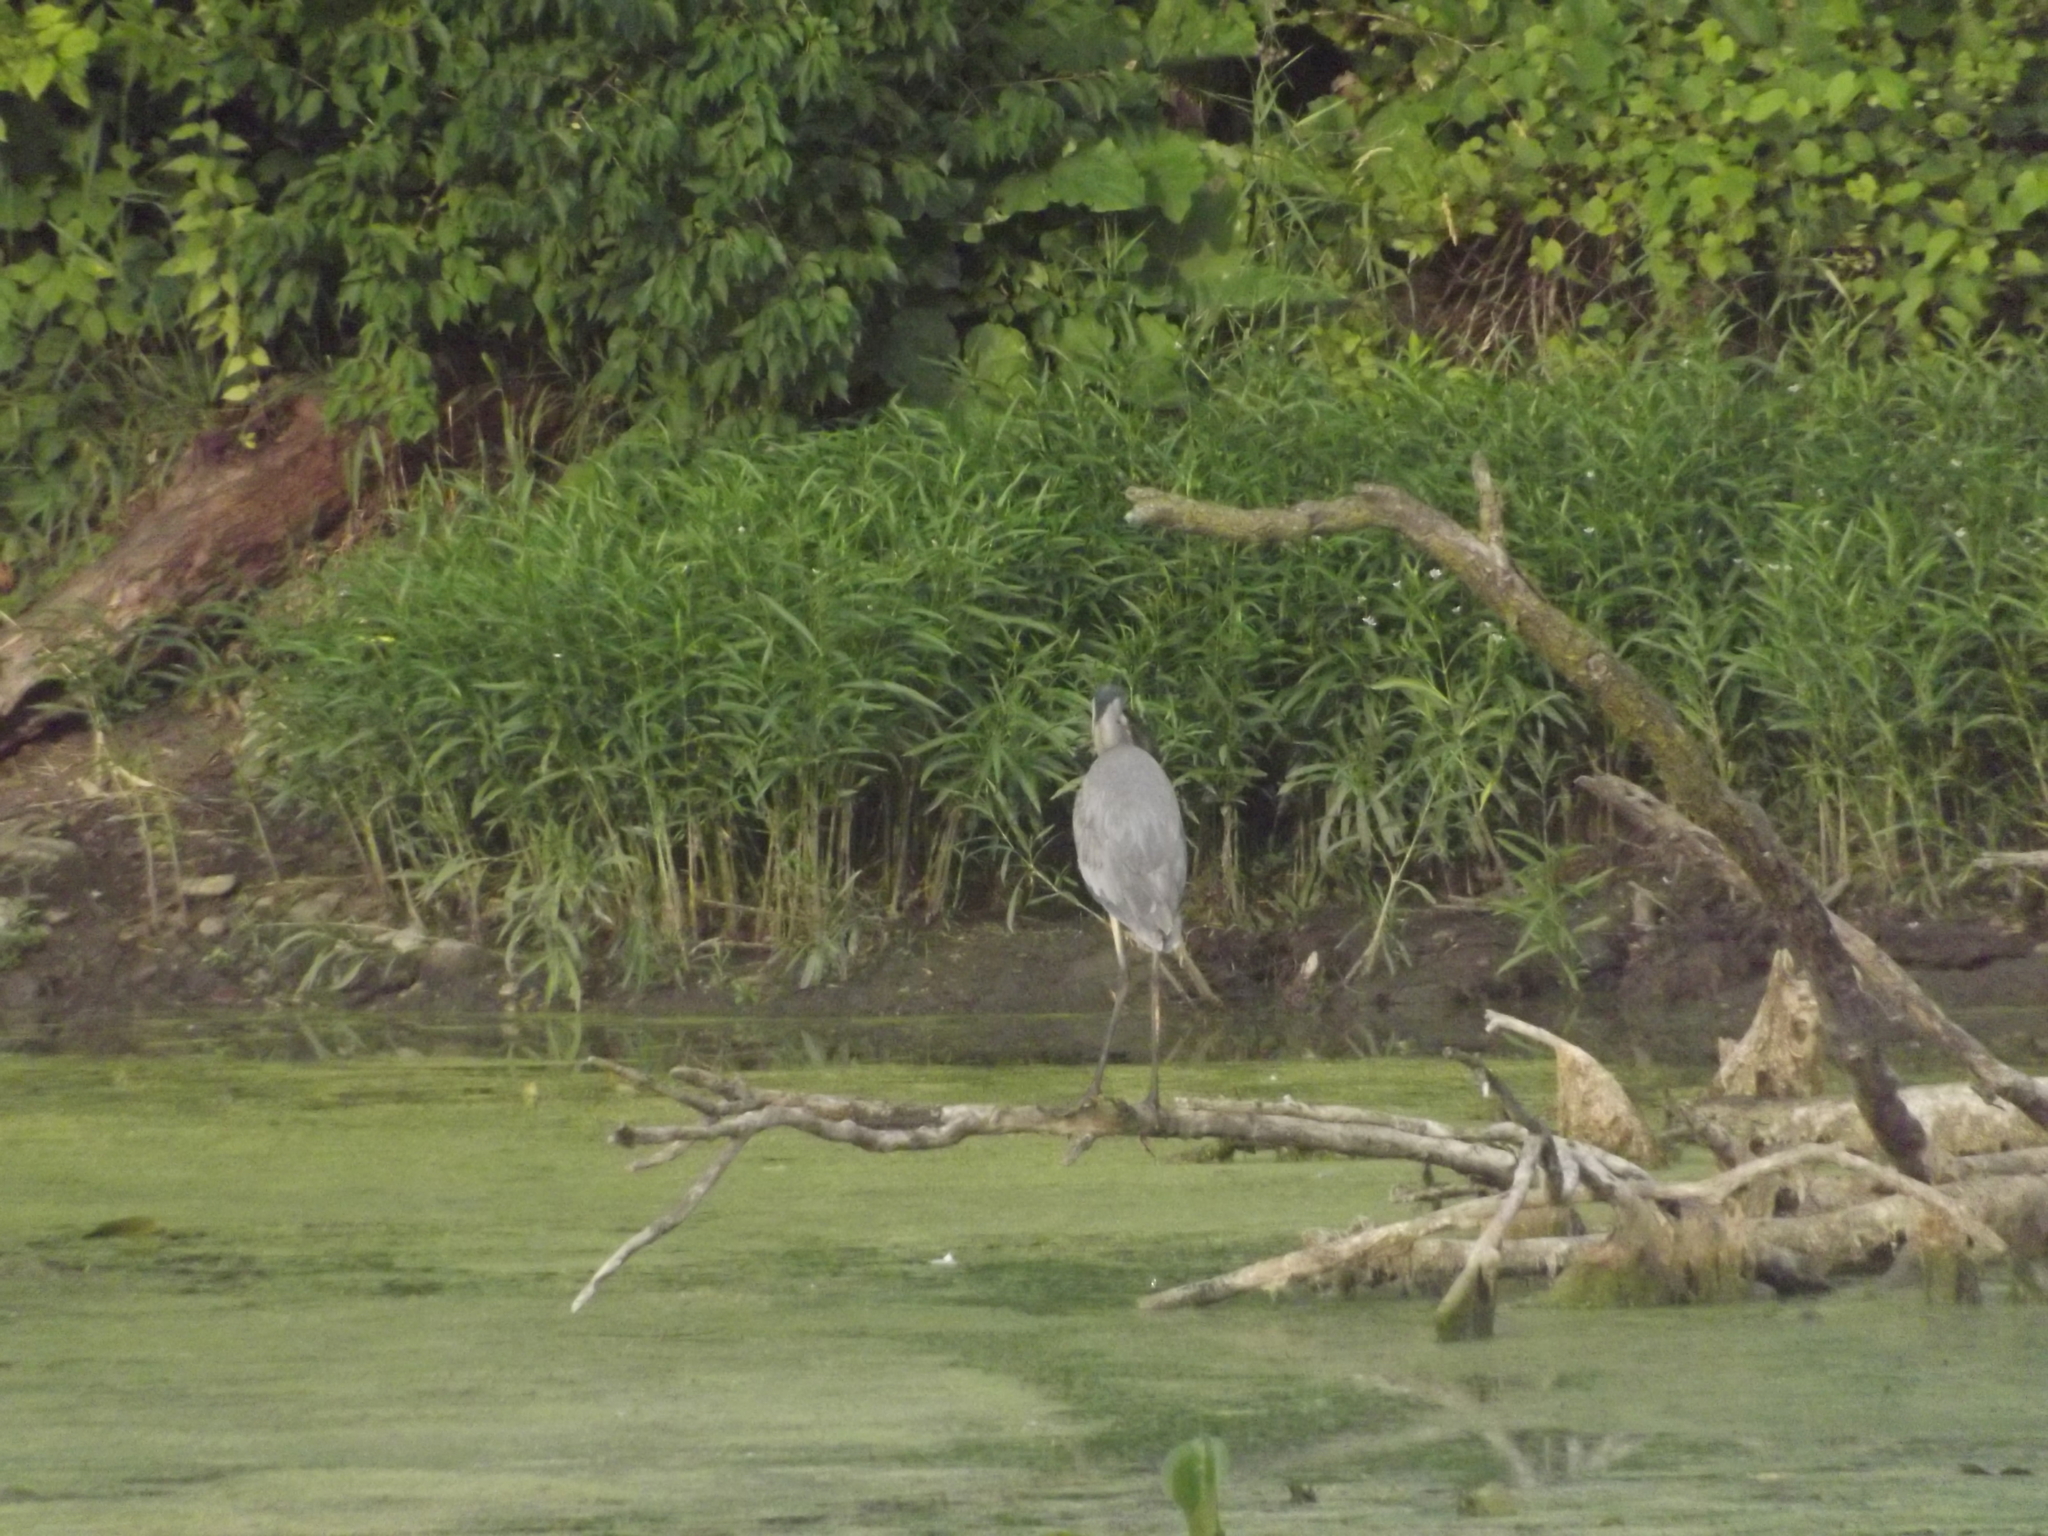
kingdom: Animalia
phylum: Chordata
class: Aves
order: Pelecaniformes
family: Ardeidae
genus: Ardea
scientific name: Ardea herodias
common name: Great blue heron
